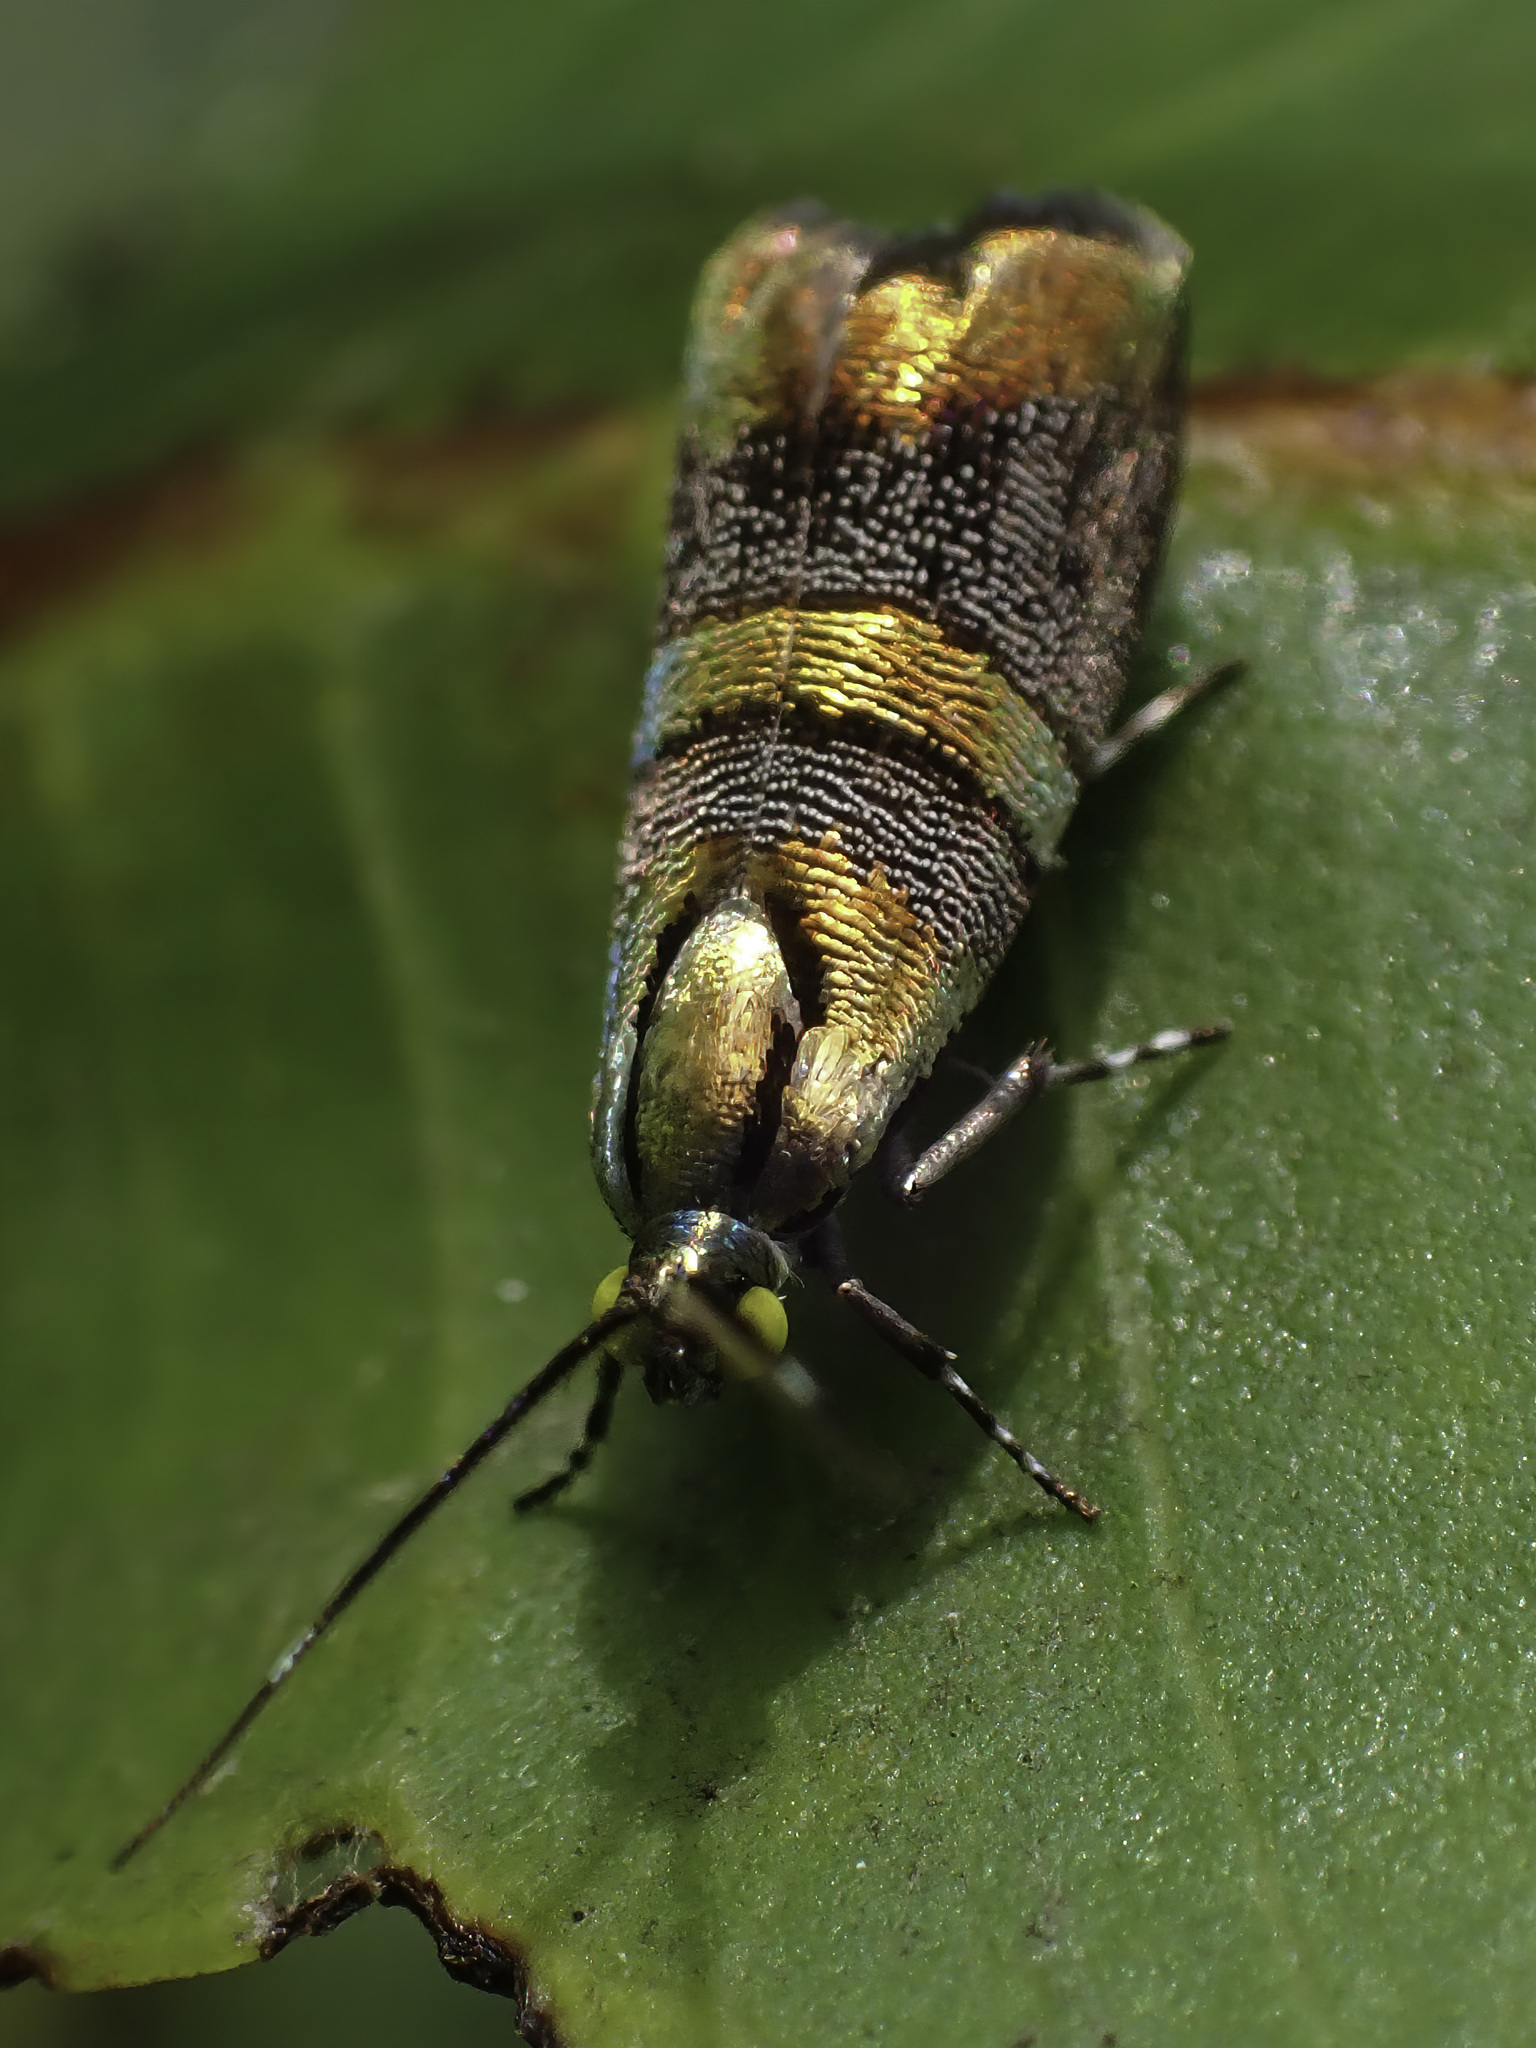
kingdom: Animalia
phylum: Arthropoda
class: Insecta
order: Lepidoptera
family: Choreutidae
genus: Tortyra
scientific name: Tortyra slossonia
